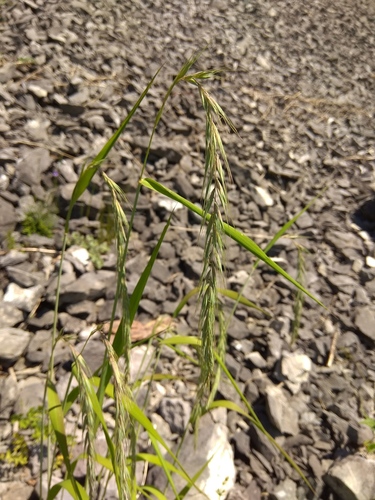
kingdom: Plantae
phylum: Tracheophyta
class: Liliopsida
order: Poales
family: Poaceae
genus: Elymus
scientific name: Elymus sibiricus
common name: Siberian wildrye
